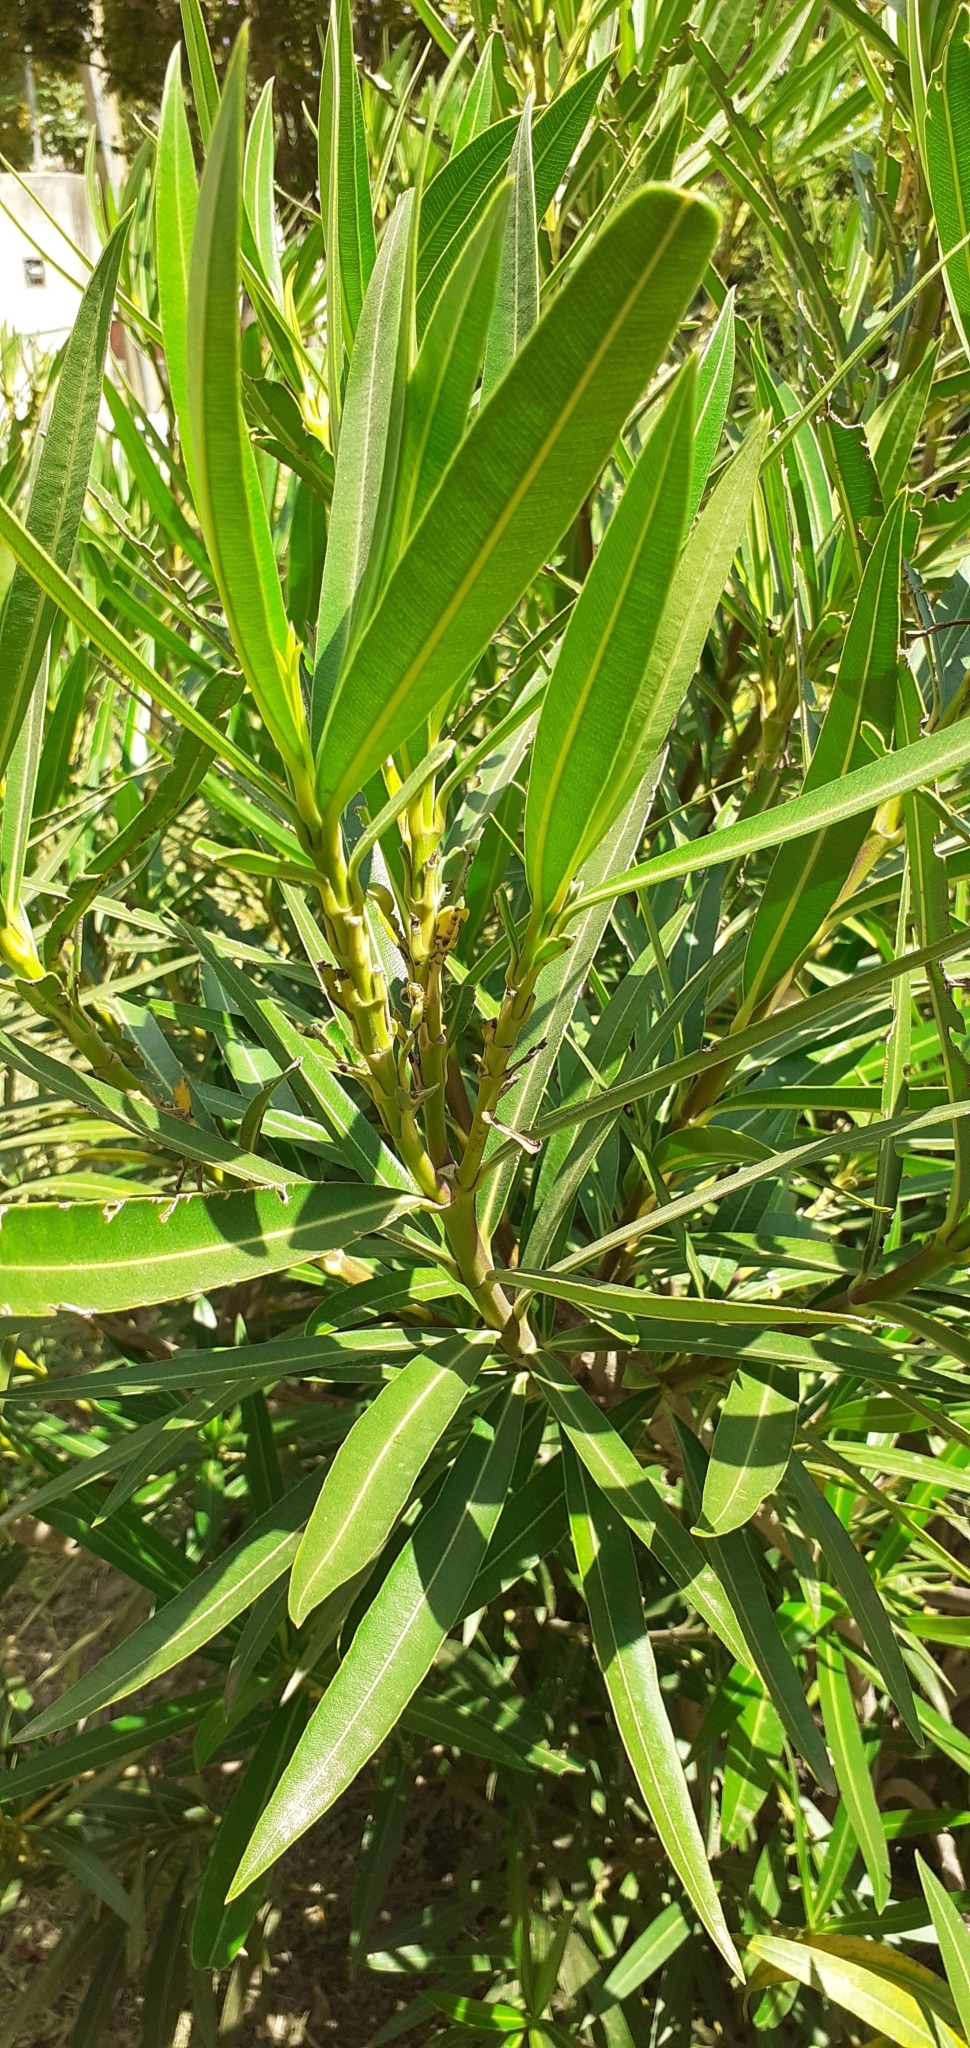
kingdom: Plantae
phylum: Tracheophyta
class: Magnoliopsida
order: Gentianales
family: Apocynaceae
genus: Nerium
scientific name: Nerium oleander
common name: Oleander
